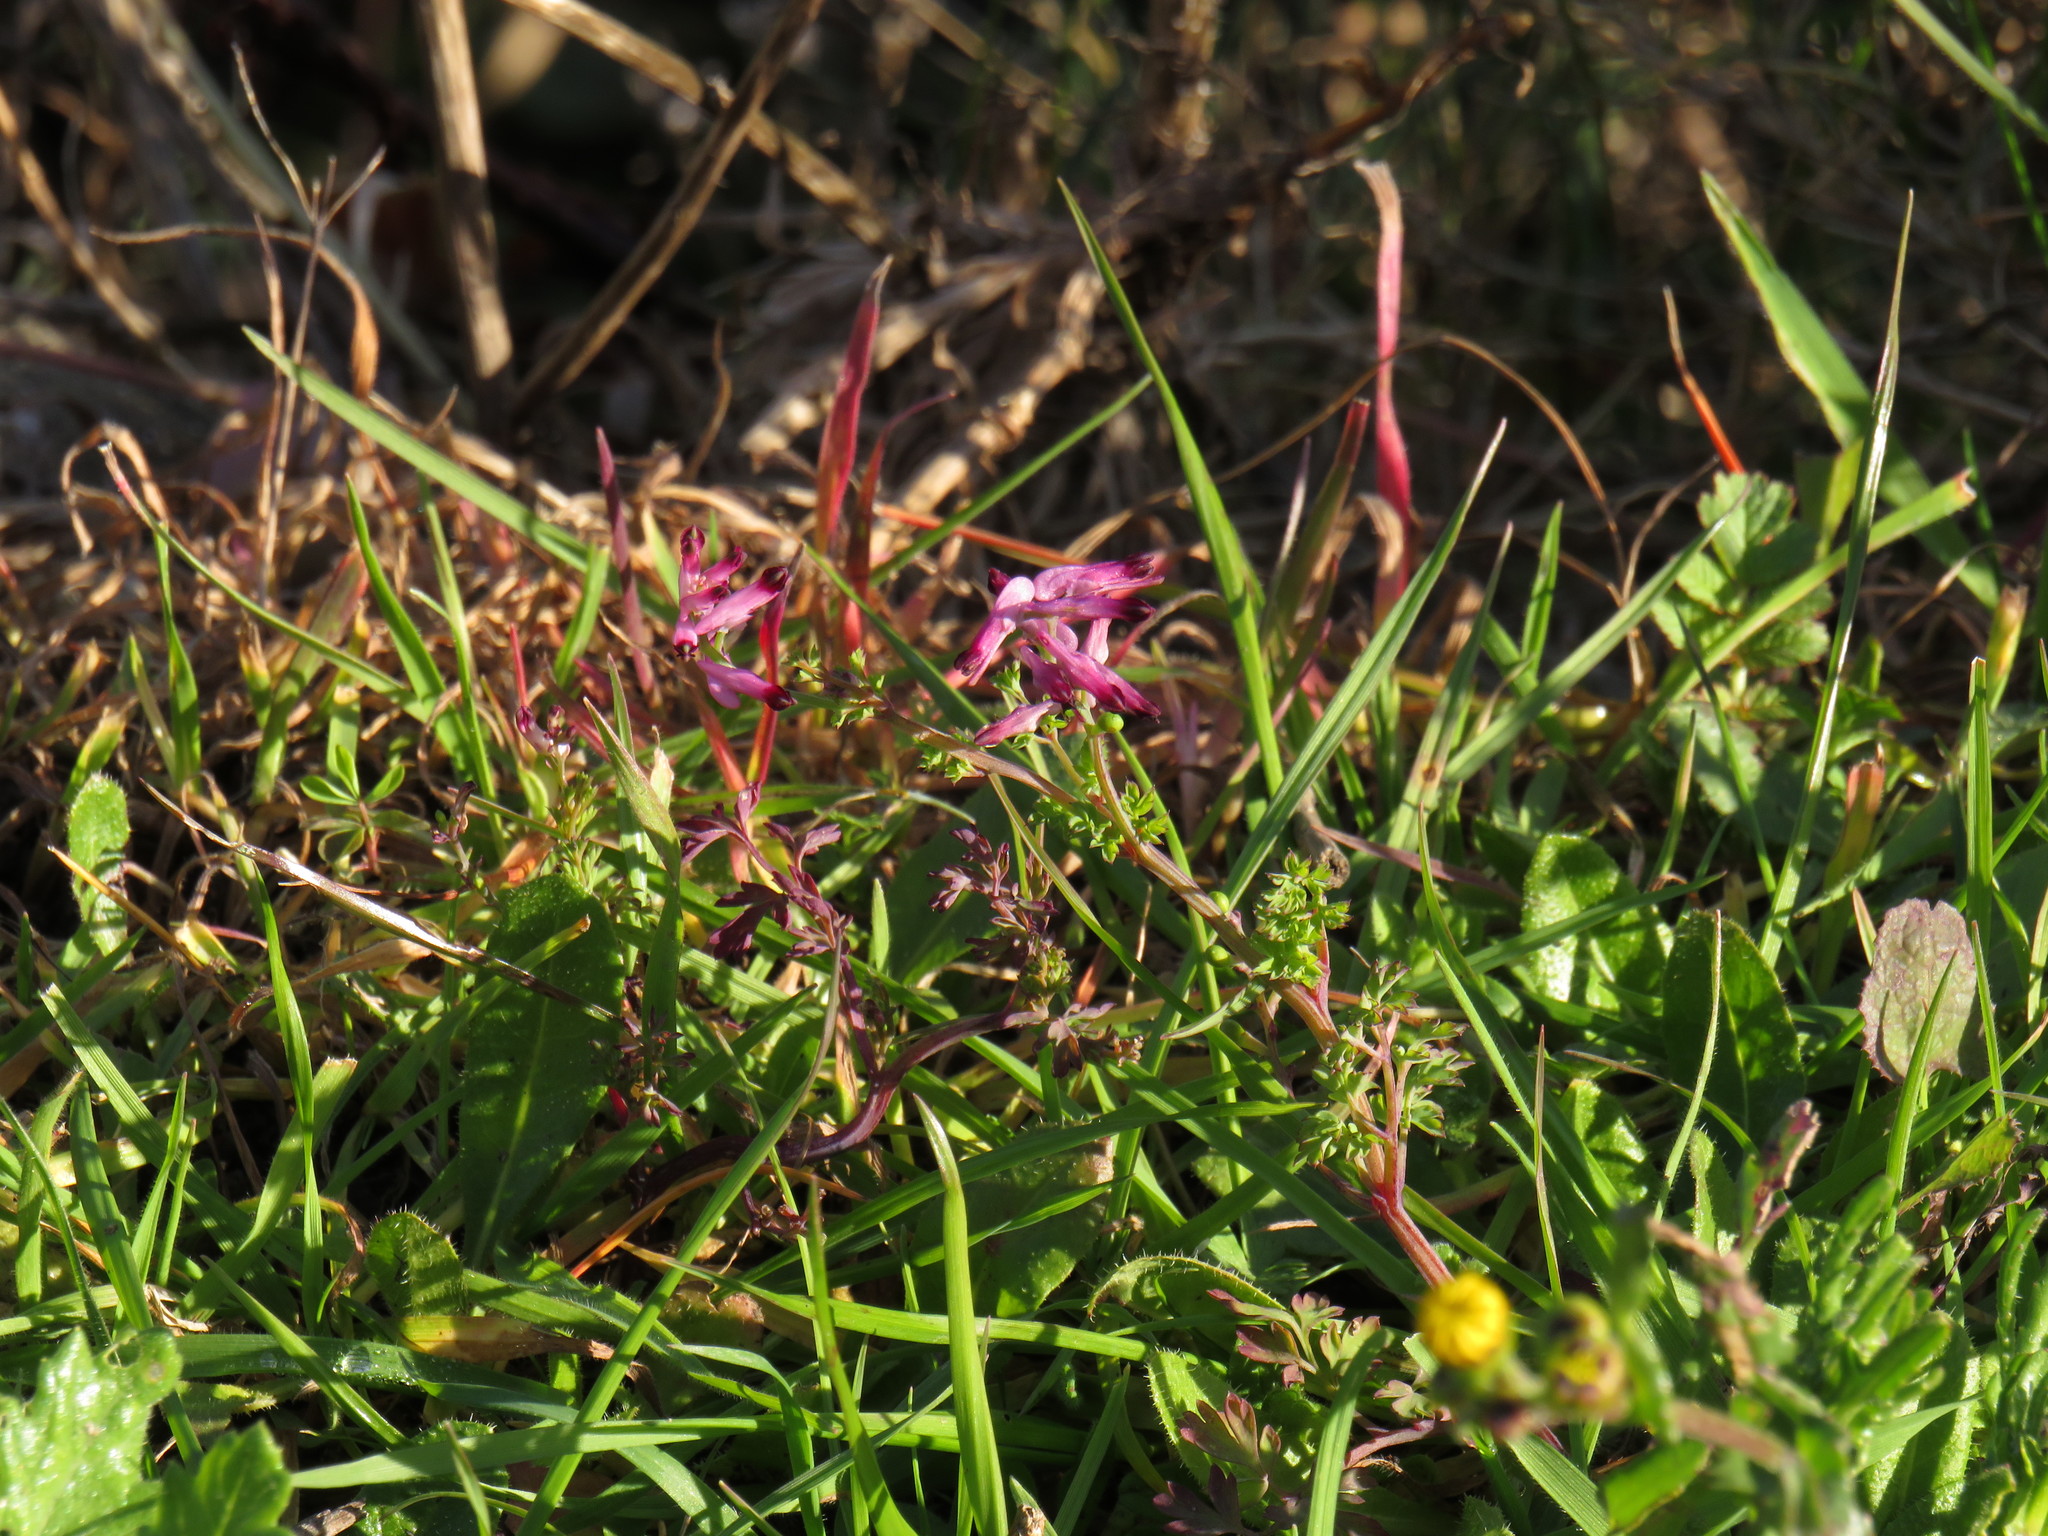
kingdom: Plantae
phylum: Tracheophyta
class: Magnoliopsida
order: Ranunculales
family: Papaveraceae
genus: Fumaria
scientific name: Fumaria muralis
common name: Common ramping-fumitory
